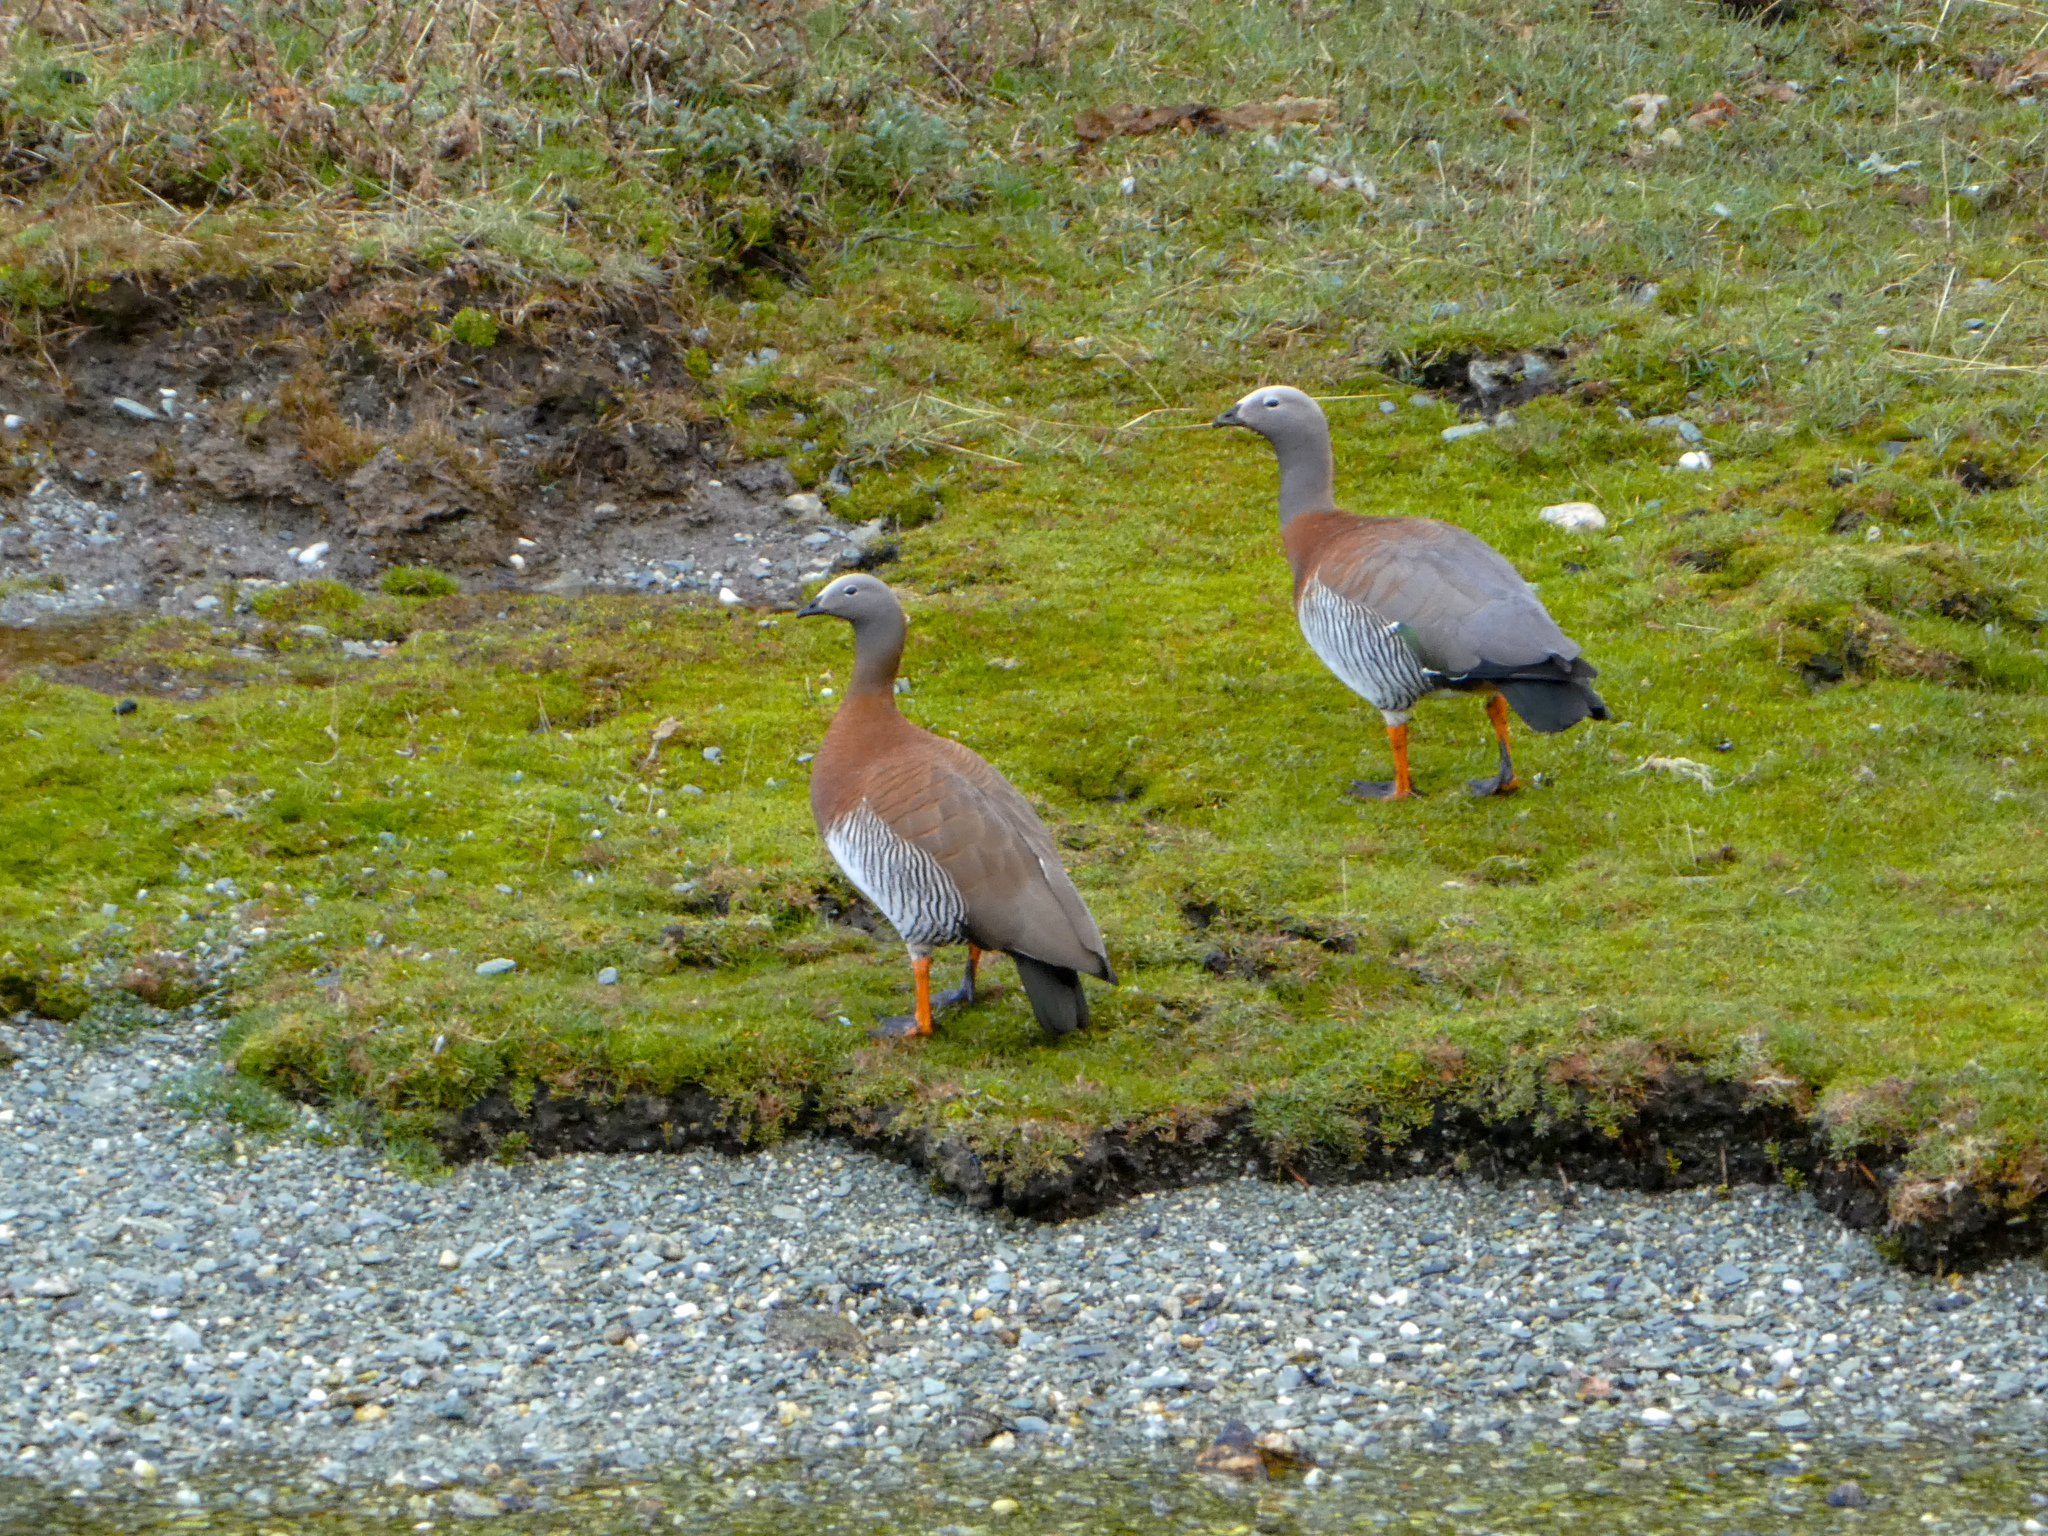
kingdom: Animalia
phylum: Chordata
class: Aves
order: Anseriformes
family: Anatidae
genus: Chloephaga
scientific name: Chloephaga poliocephala
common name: Ashy-headed goose
